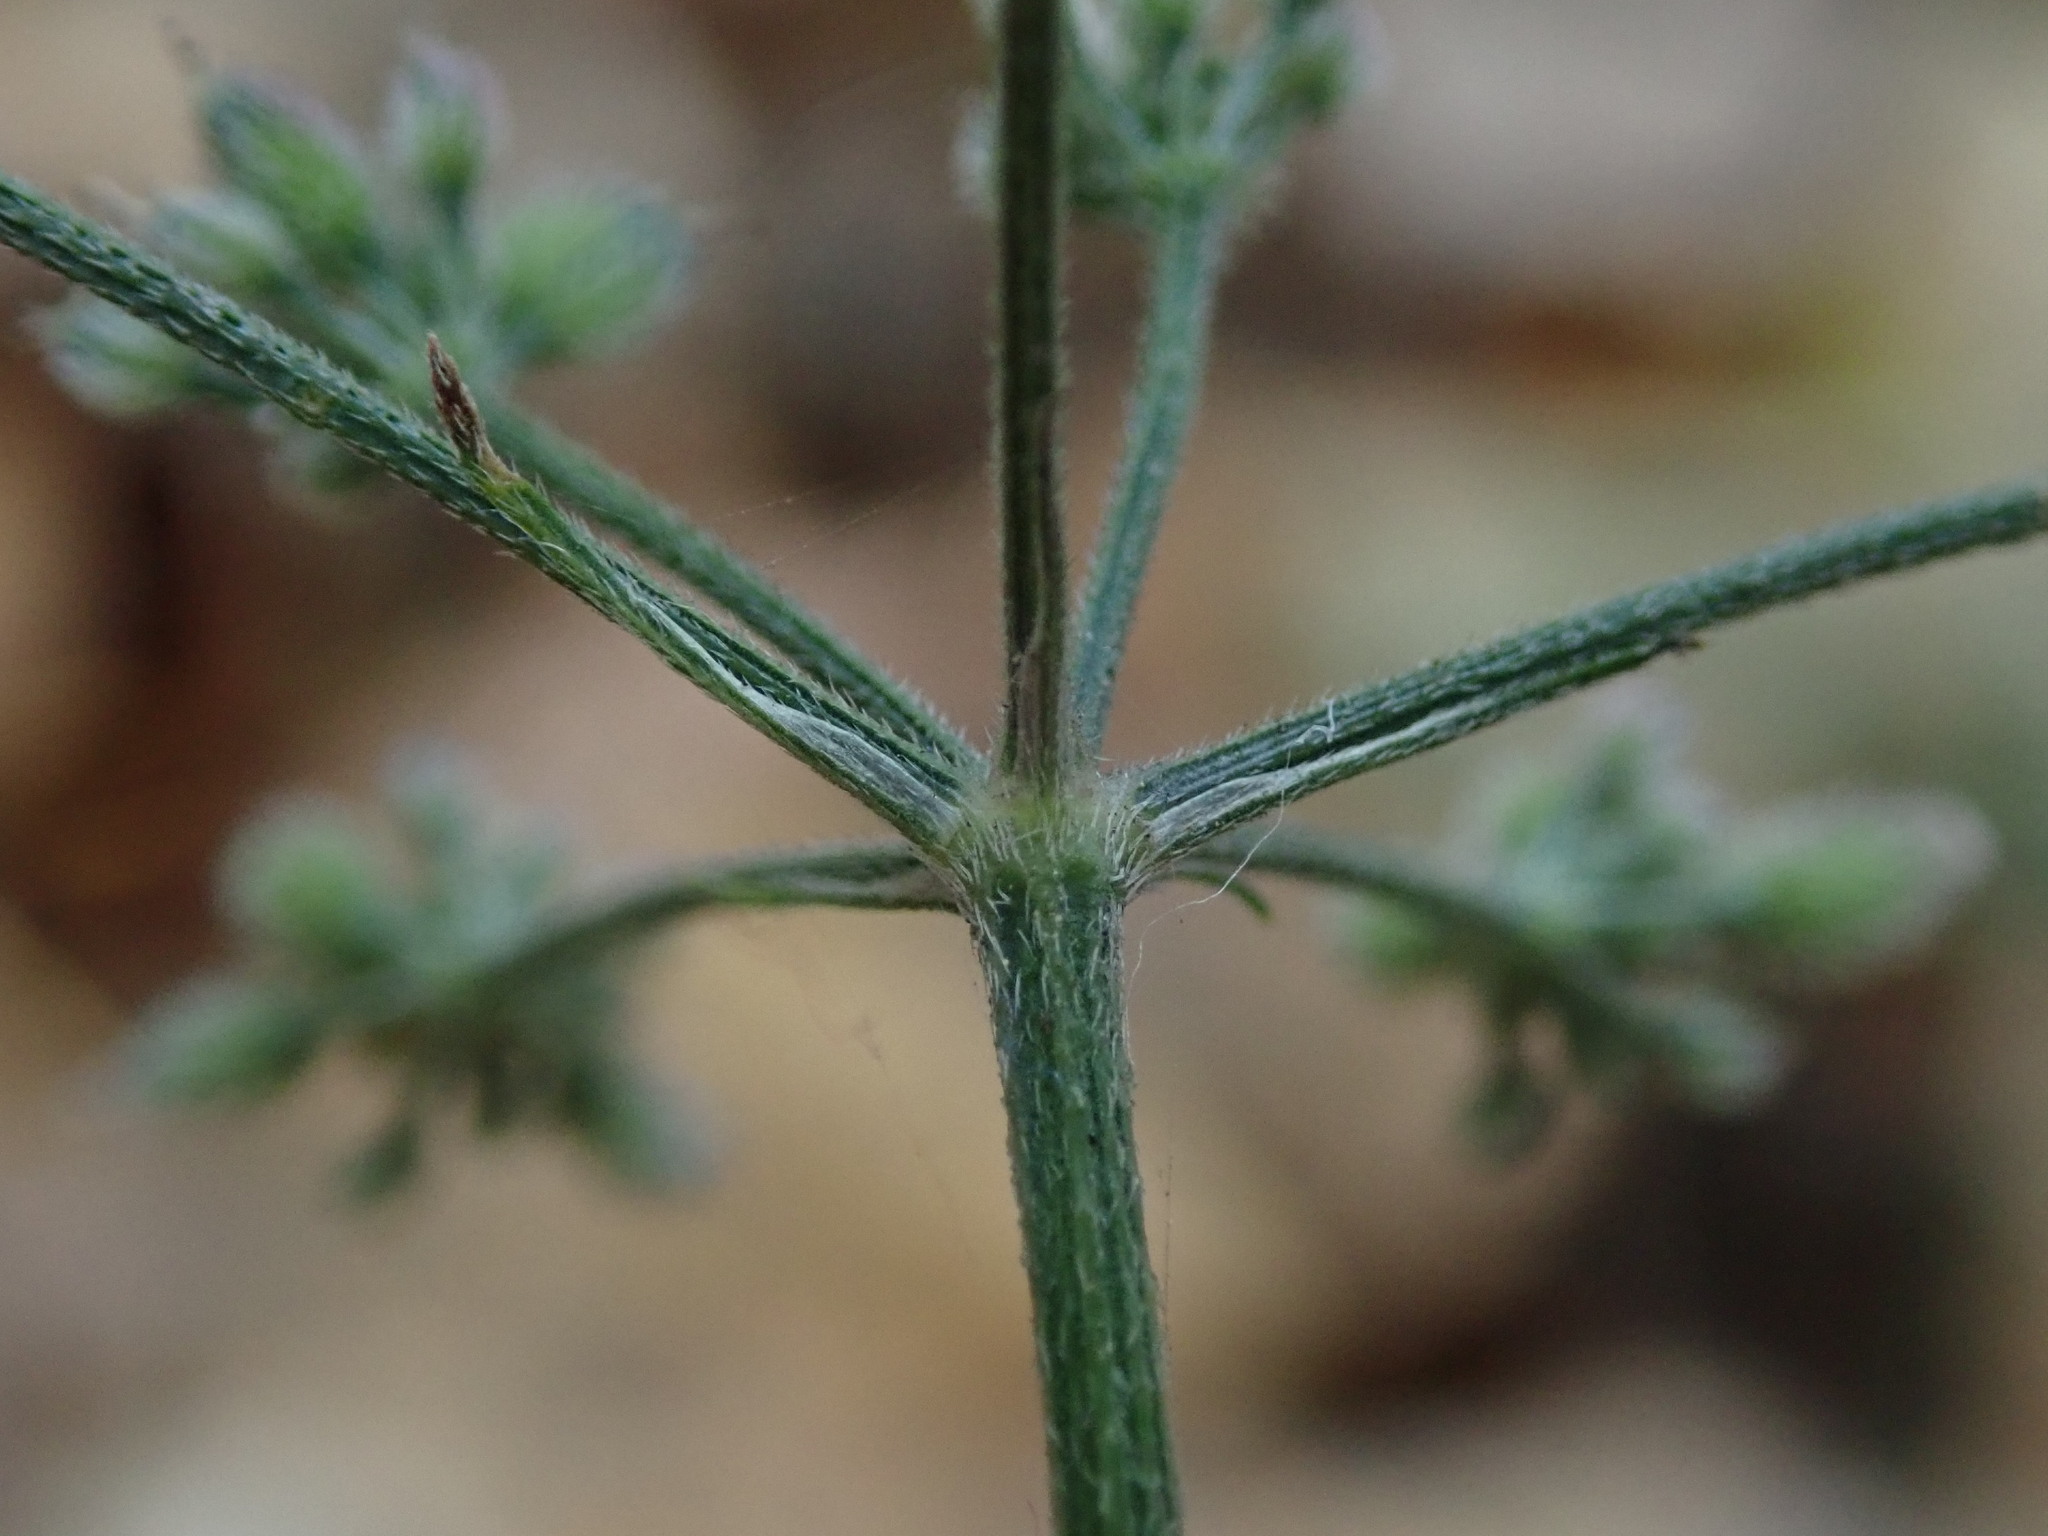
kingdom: Plantae
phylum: Tracheophyta
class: Magnoliopsida
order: Apiales
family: Apiaceae
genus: Torilis
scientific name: Torilis japonica
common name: Upright hedge-parsley
